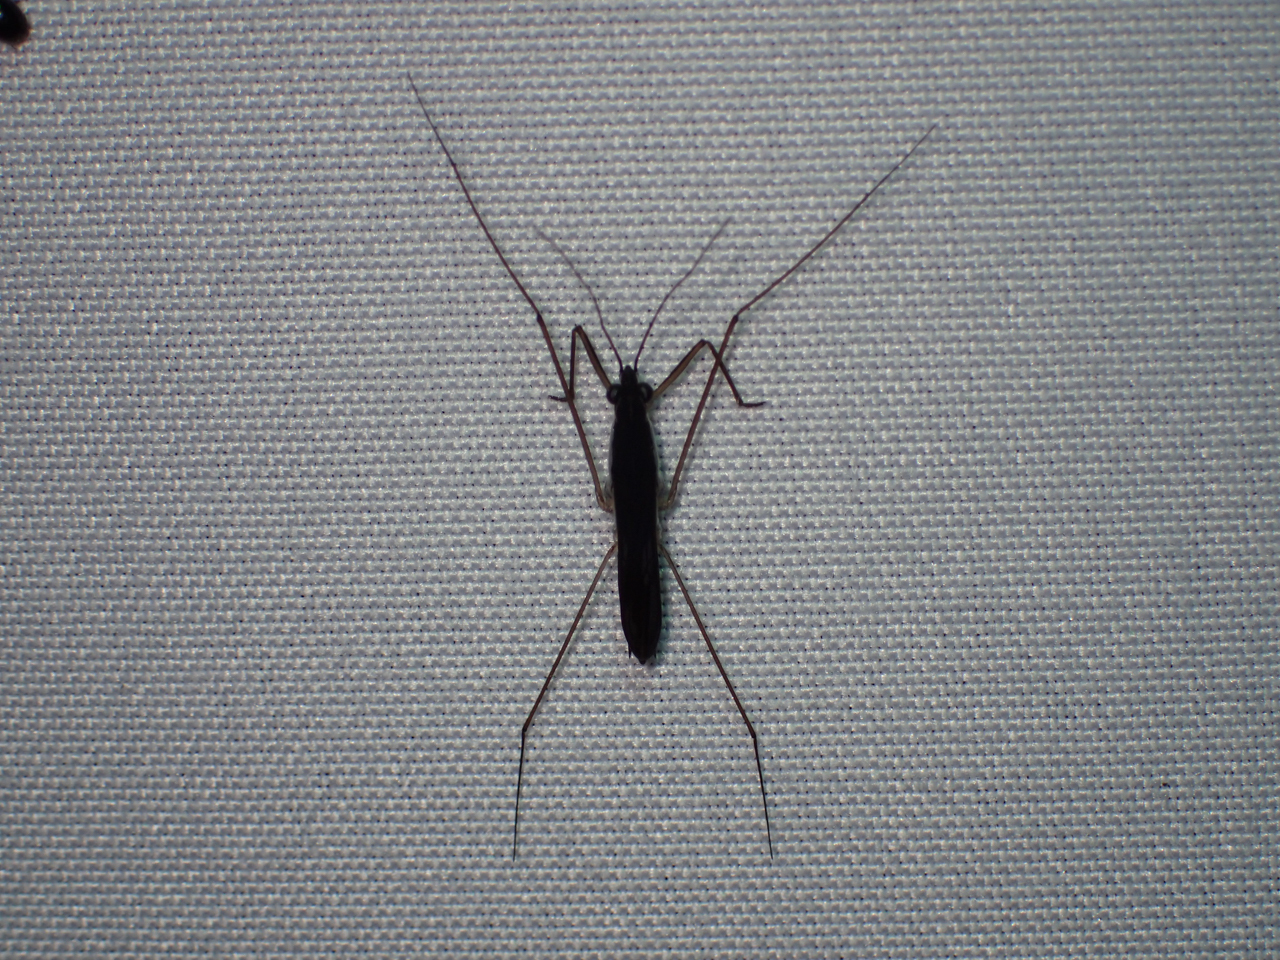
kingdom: Animalia
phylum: Arthropoda
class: Insecta
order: Hemiptera
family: Gerridae
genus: Limnoporus
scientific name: Limnoporus canaliculatus
